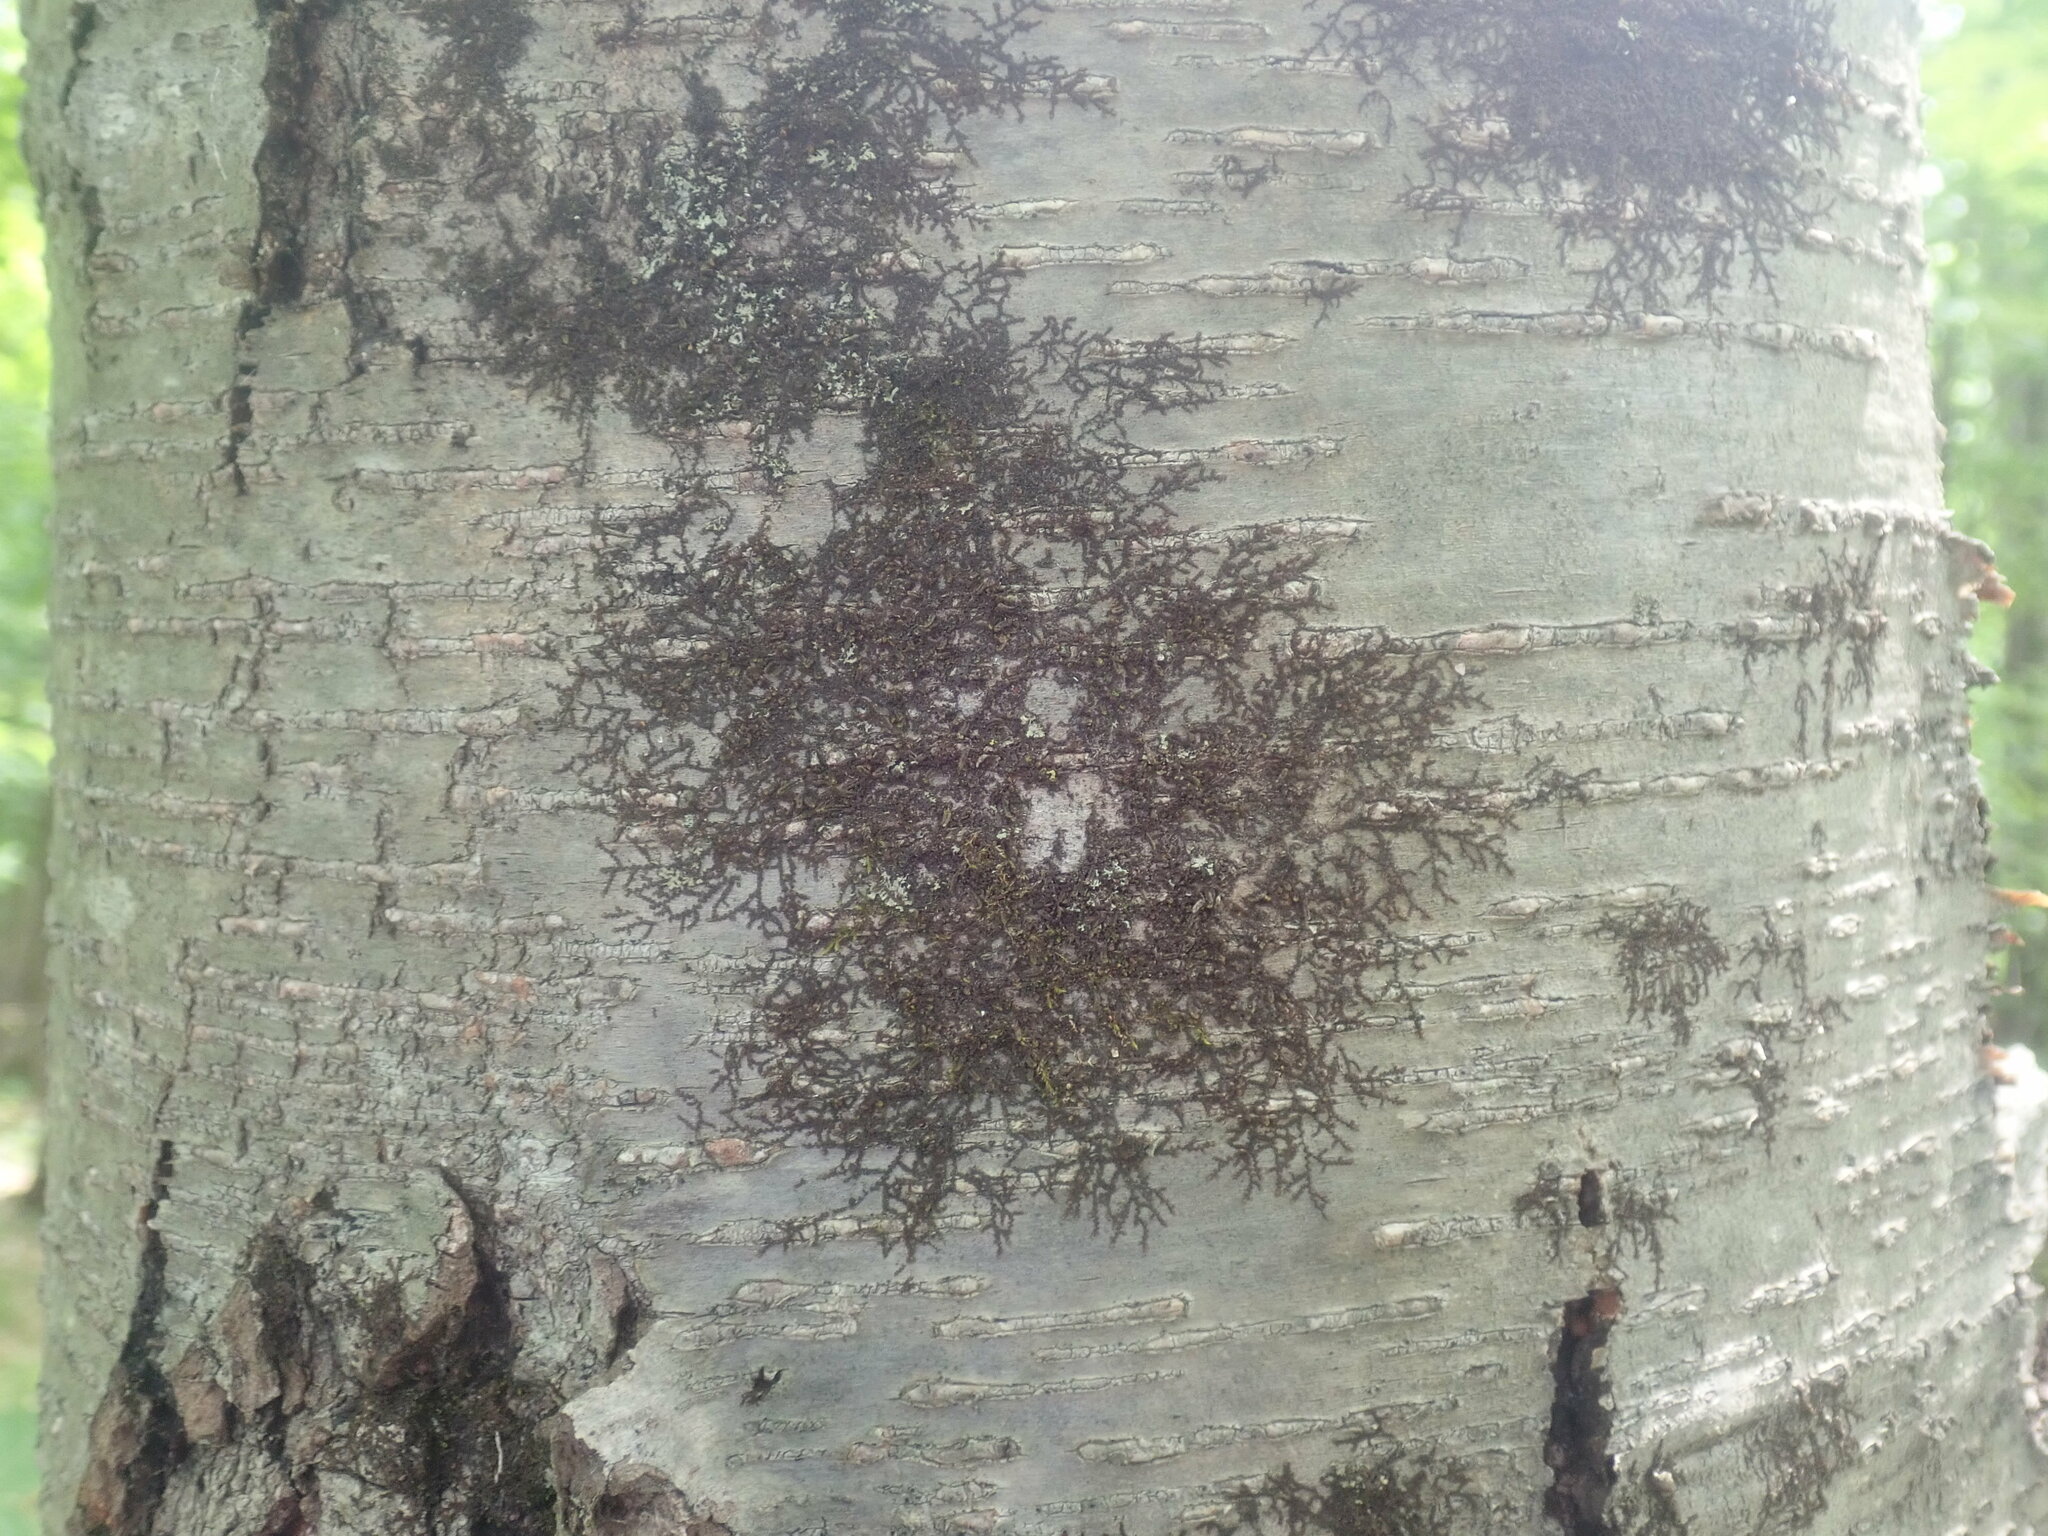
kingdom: Plantae
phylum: Marchantiophyta
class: Jungermanniopsida
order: Porellales
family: Frullaniaceae
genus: Frullania
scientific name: Frullania
